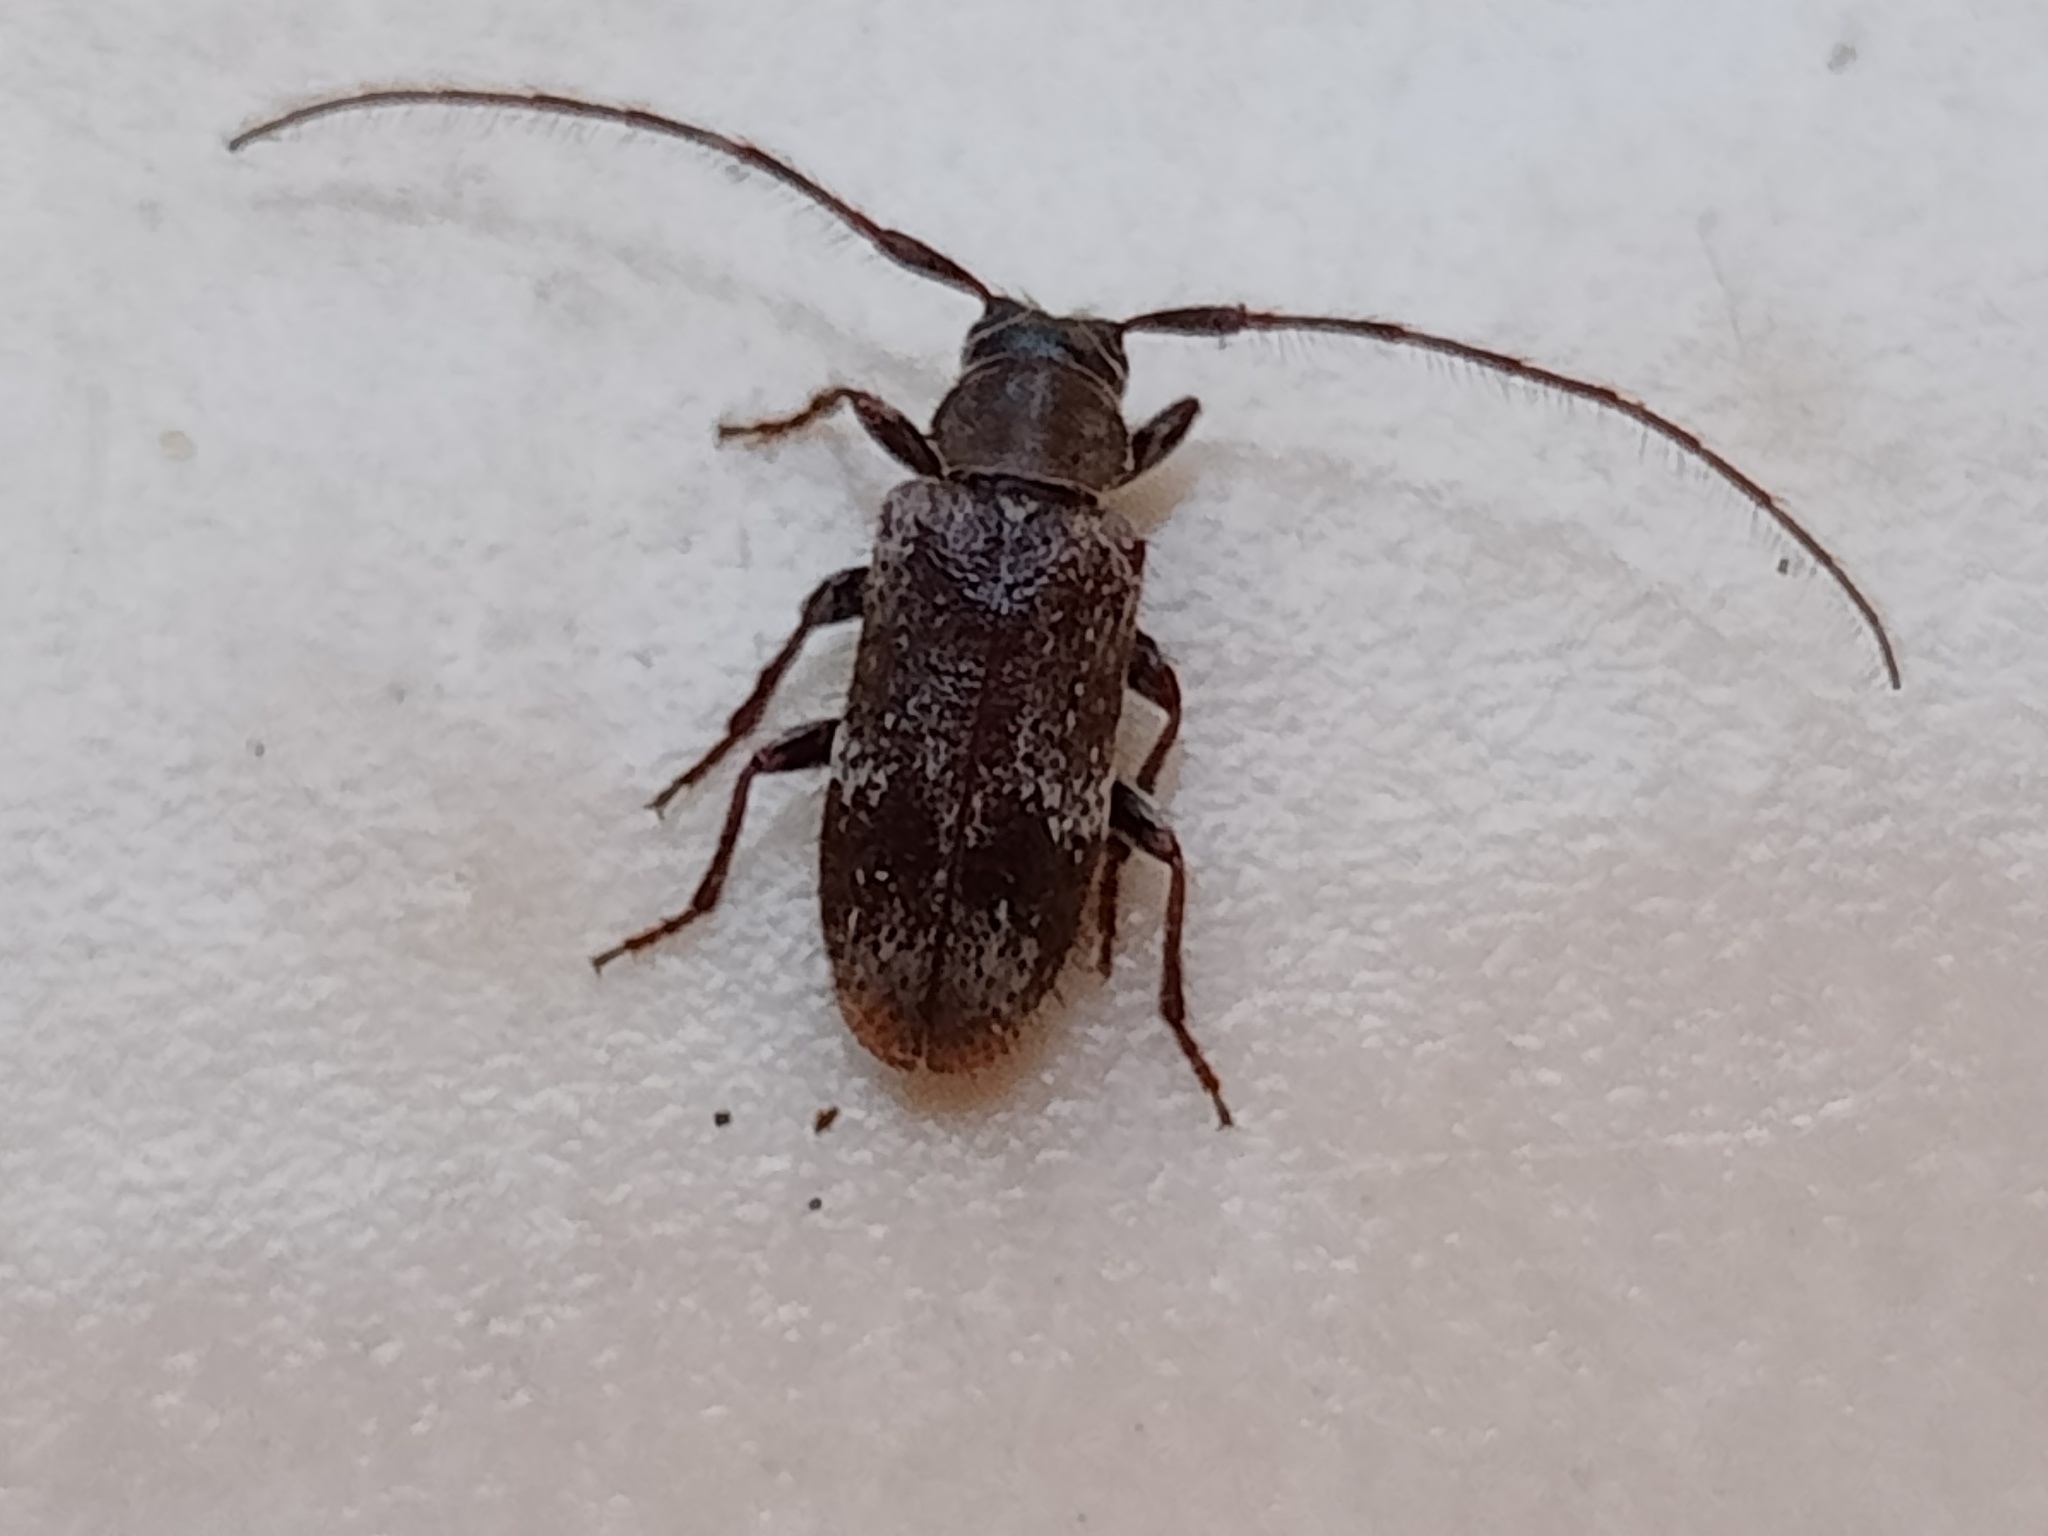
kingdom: Animalia
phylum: Arthropoda
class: Insecta
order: Coleoptera
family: Cerambycidae
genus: Exocentrus
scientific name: Exocentrus adspersus
